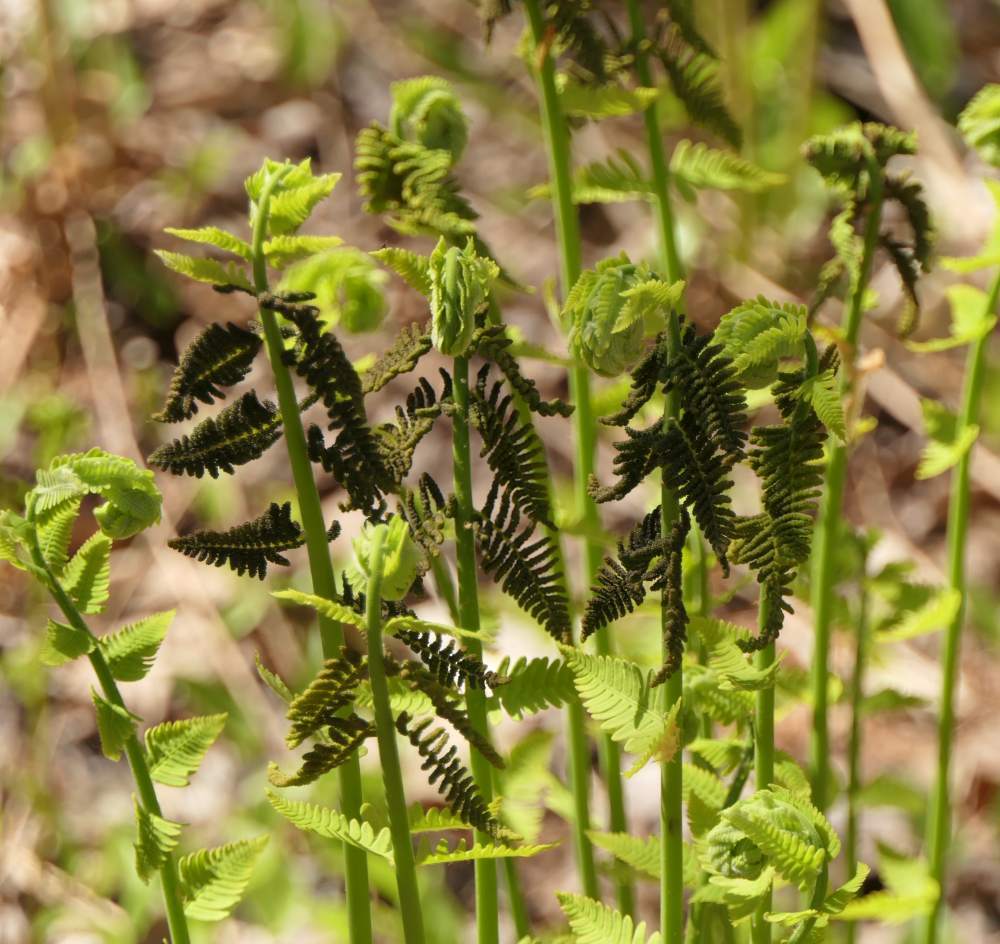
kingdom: Plantae
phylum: Tracheophyta
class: Polypodiopsida
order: Osmundales
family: Osmundaceae
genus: Claytosmunda
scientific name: Claytosmunda claytoniana
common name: Clayton's fern
